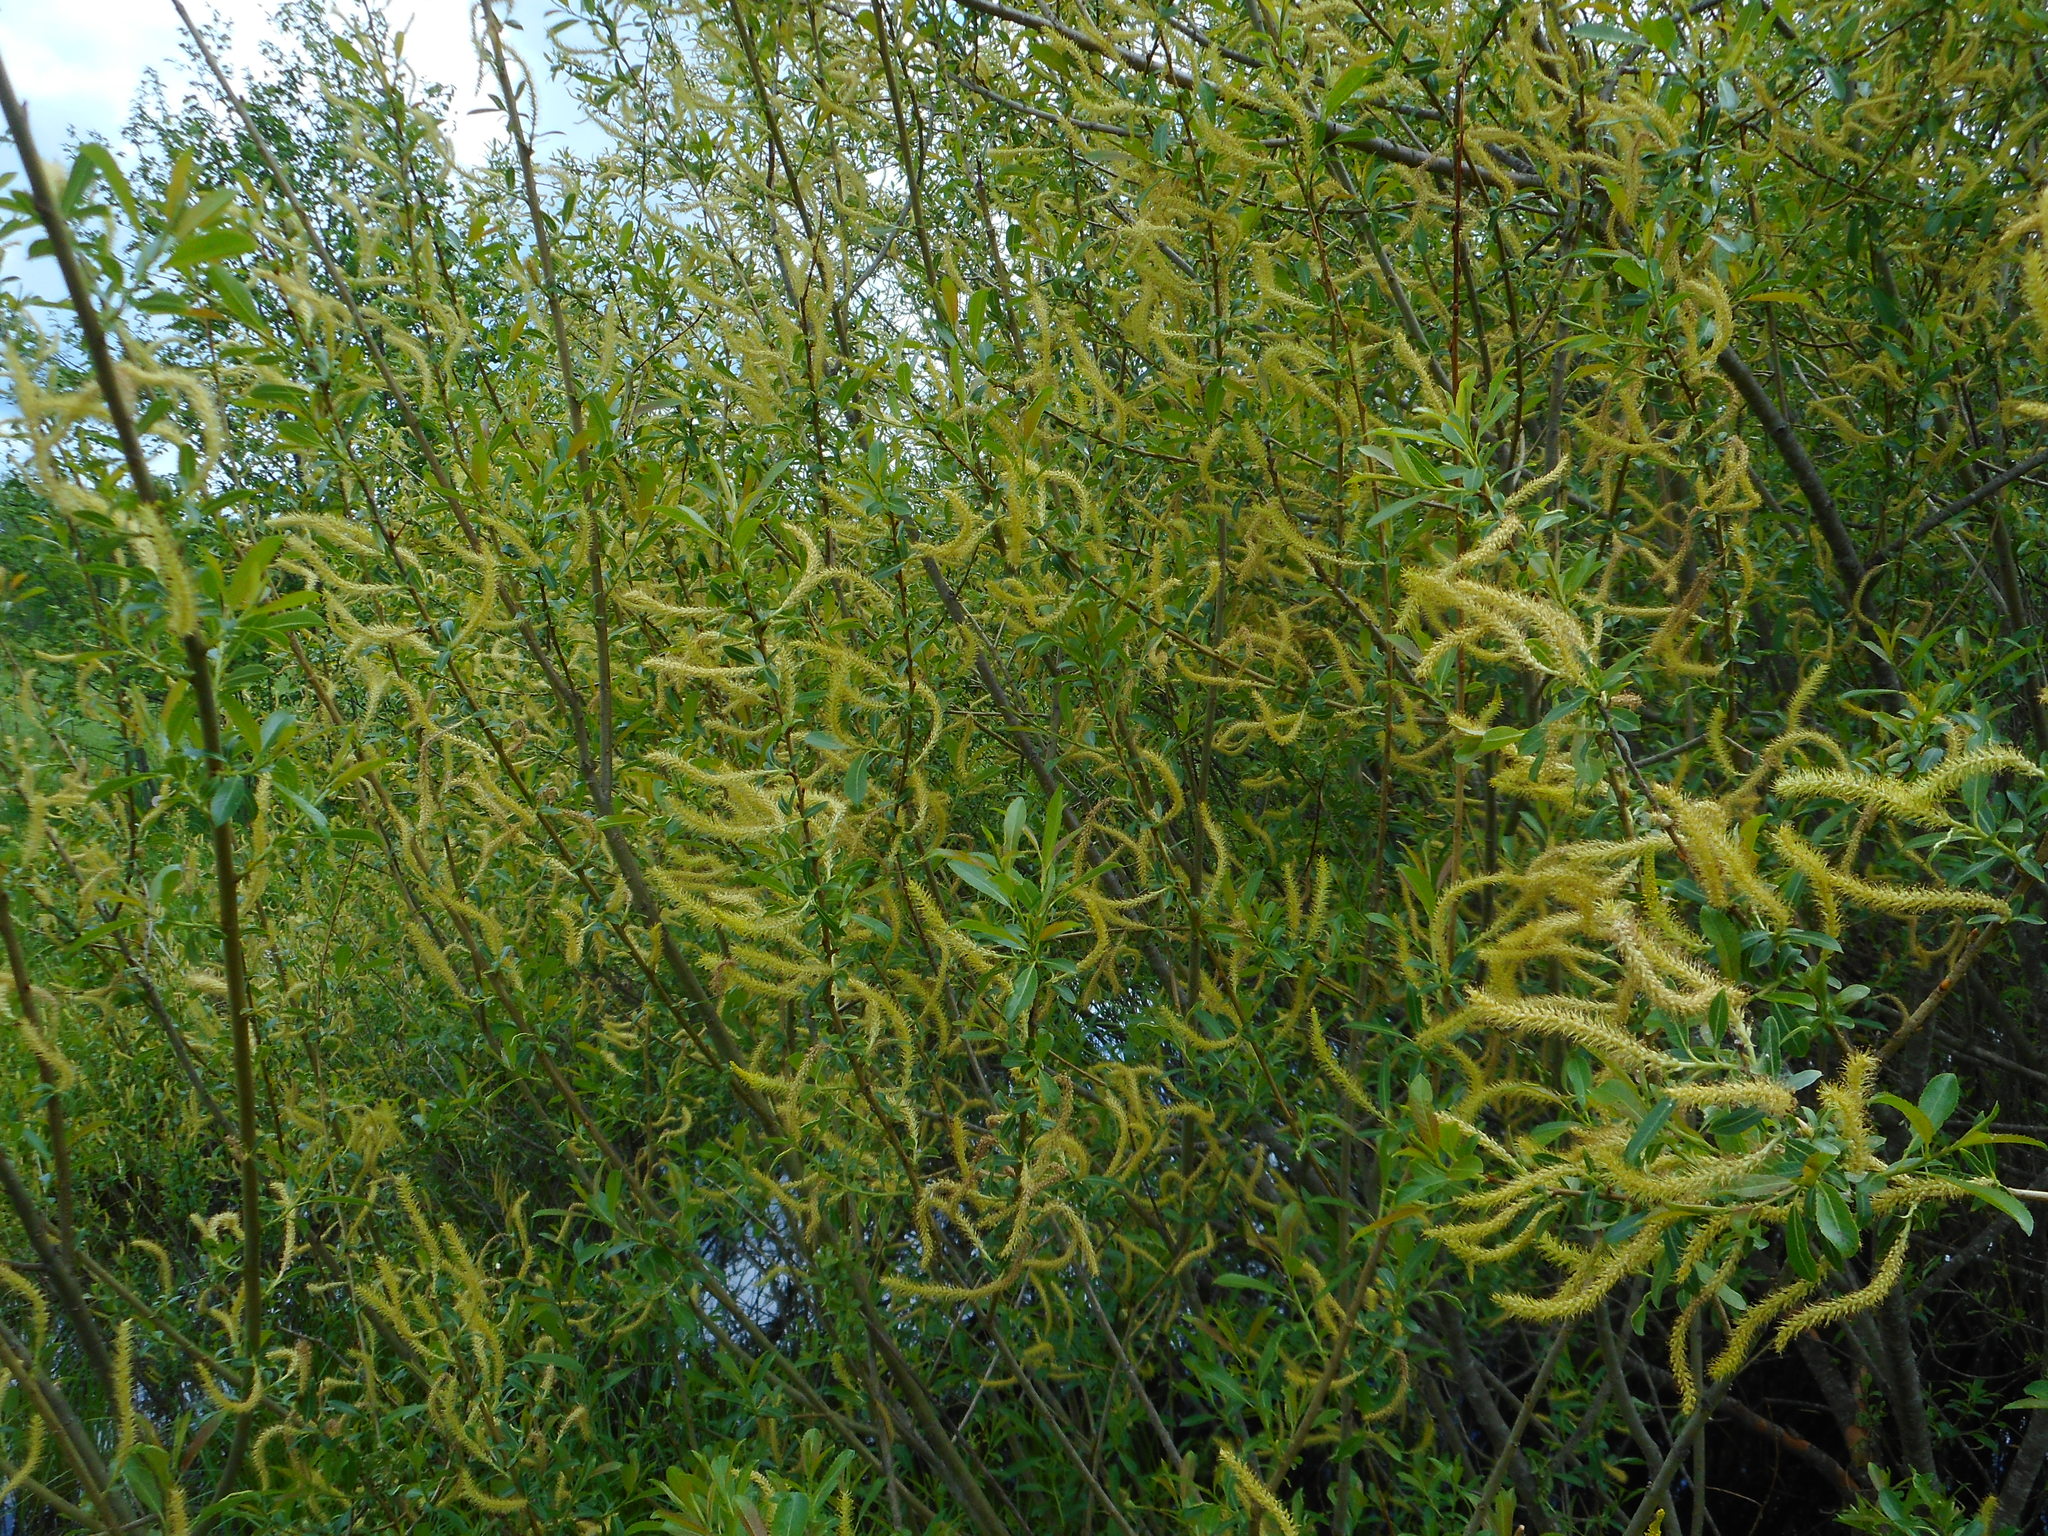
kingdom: Plantae
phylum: Tracheophyta
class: Magnoliopsida
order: Malpighiales
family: Salicaceae
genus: Salix
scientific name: Salix triandra
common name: Almond willow
